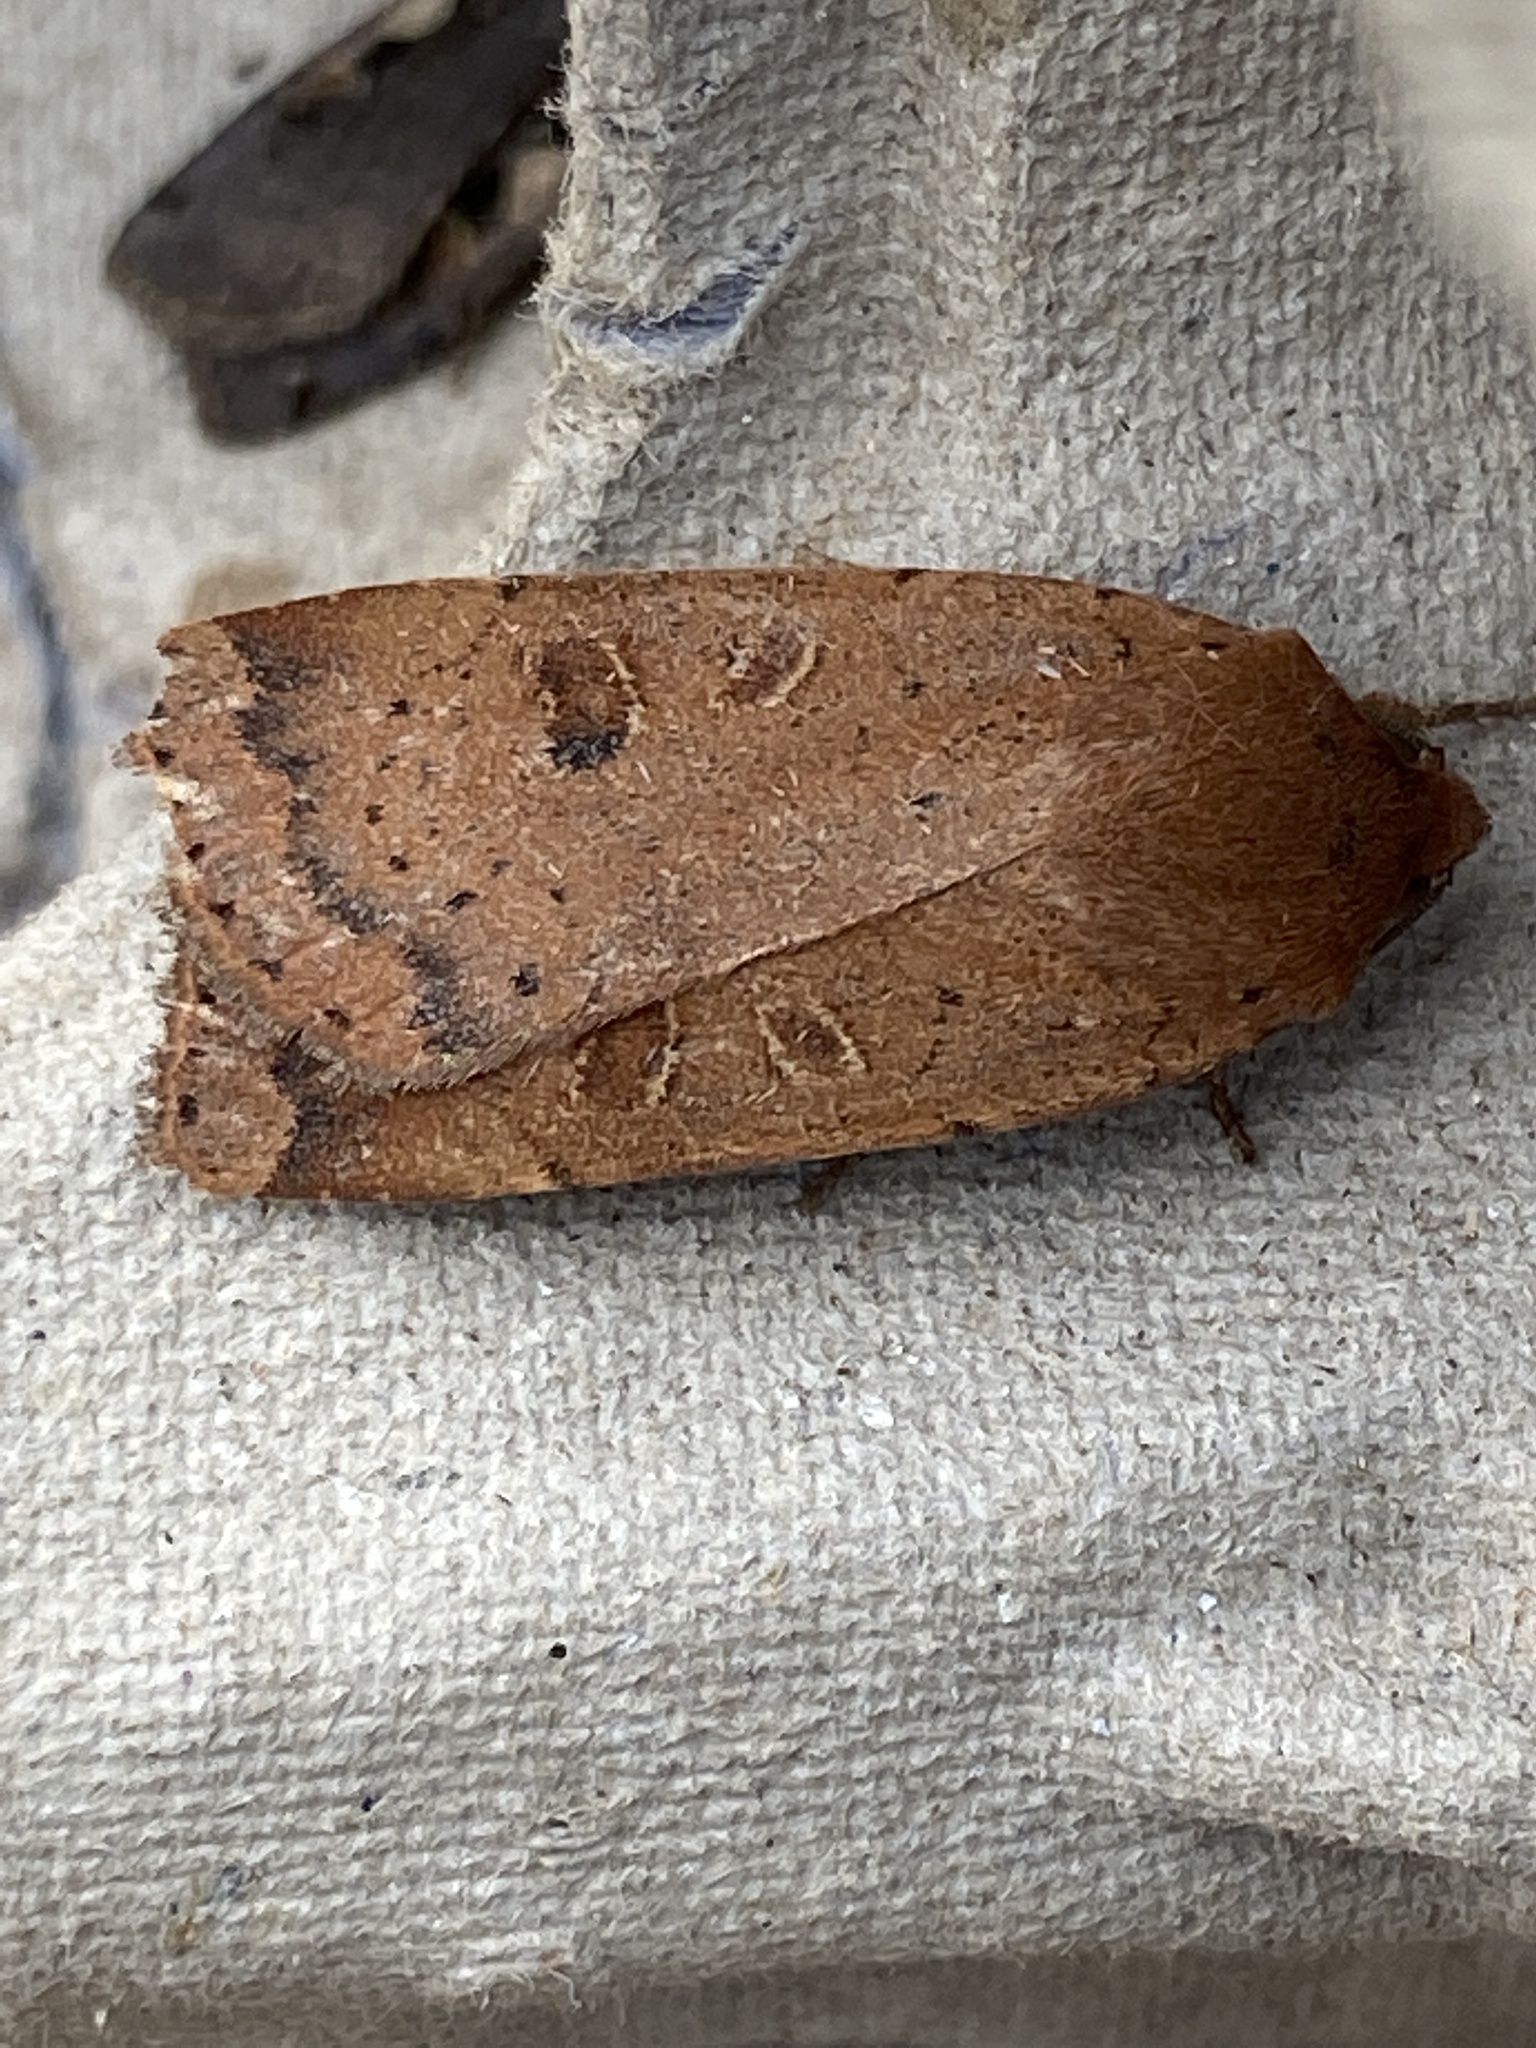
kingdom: Animalia
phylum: Arthropoda
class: Insecta
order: Lepidoptera
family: Noctuidae
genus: Noctua
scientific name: Noctua comes
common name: Lesser yellow underwing
